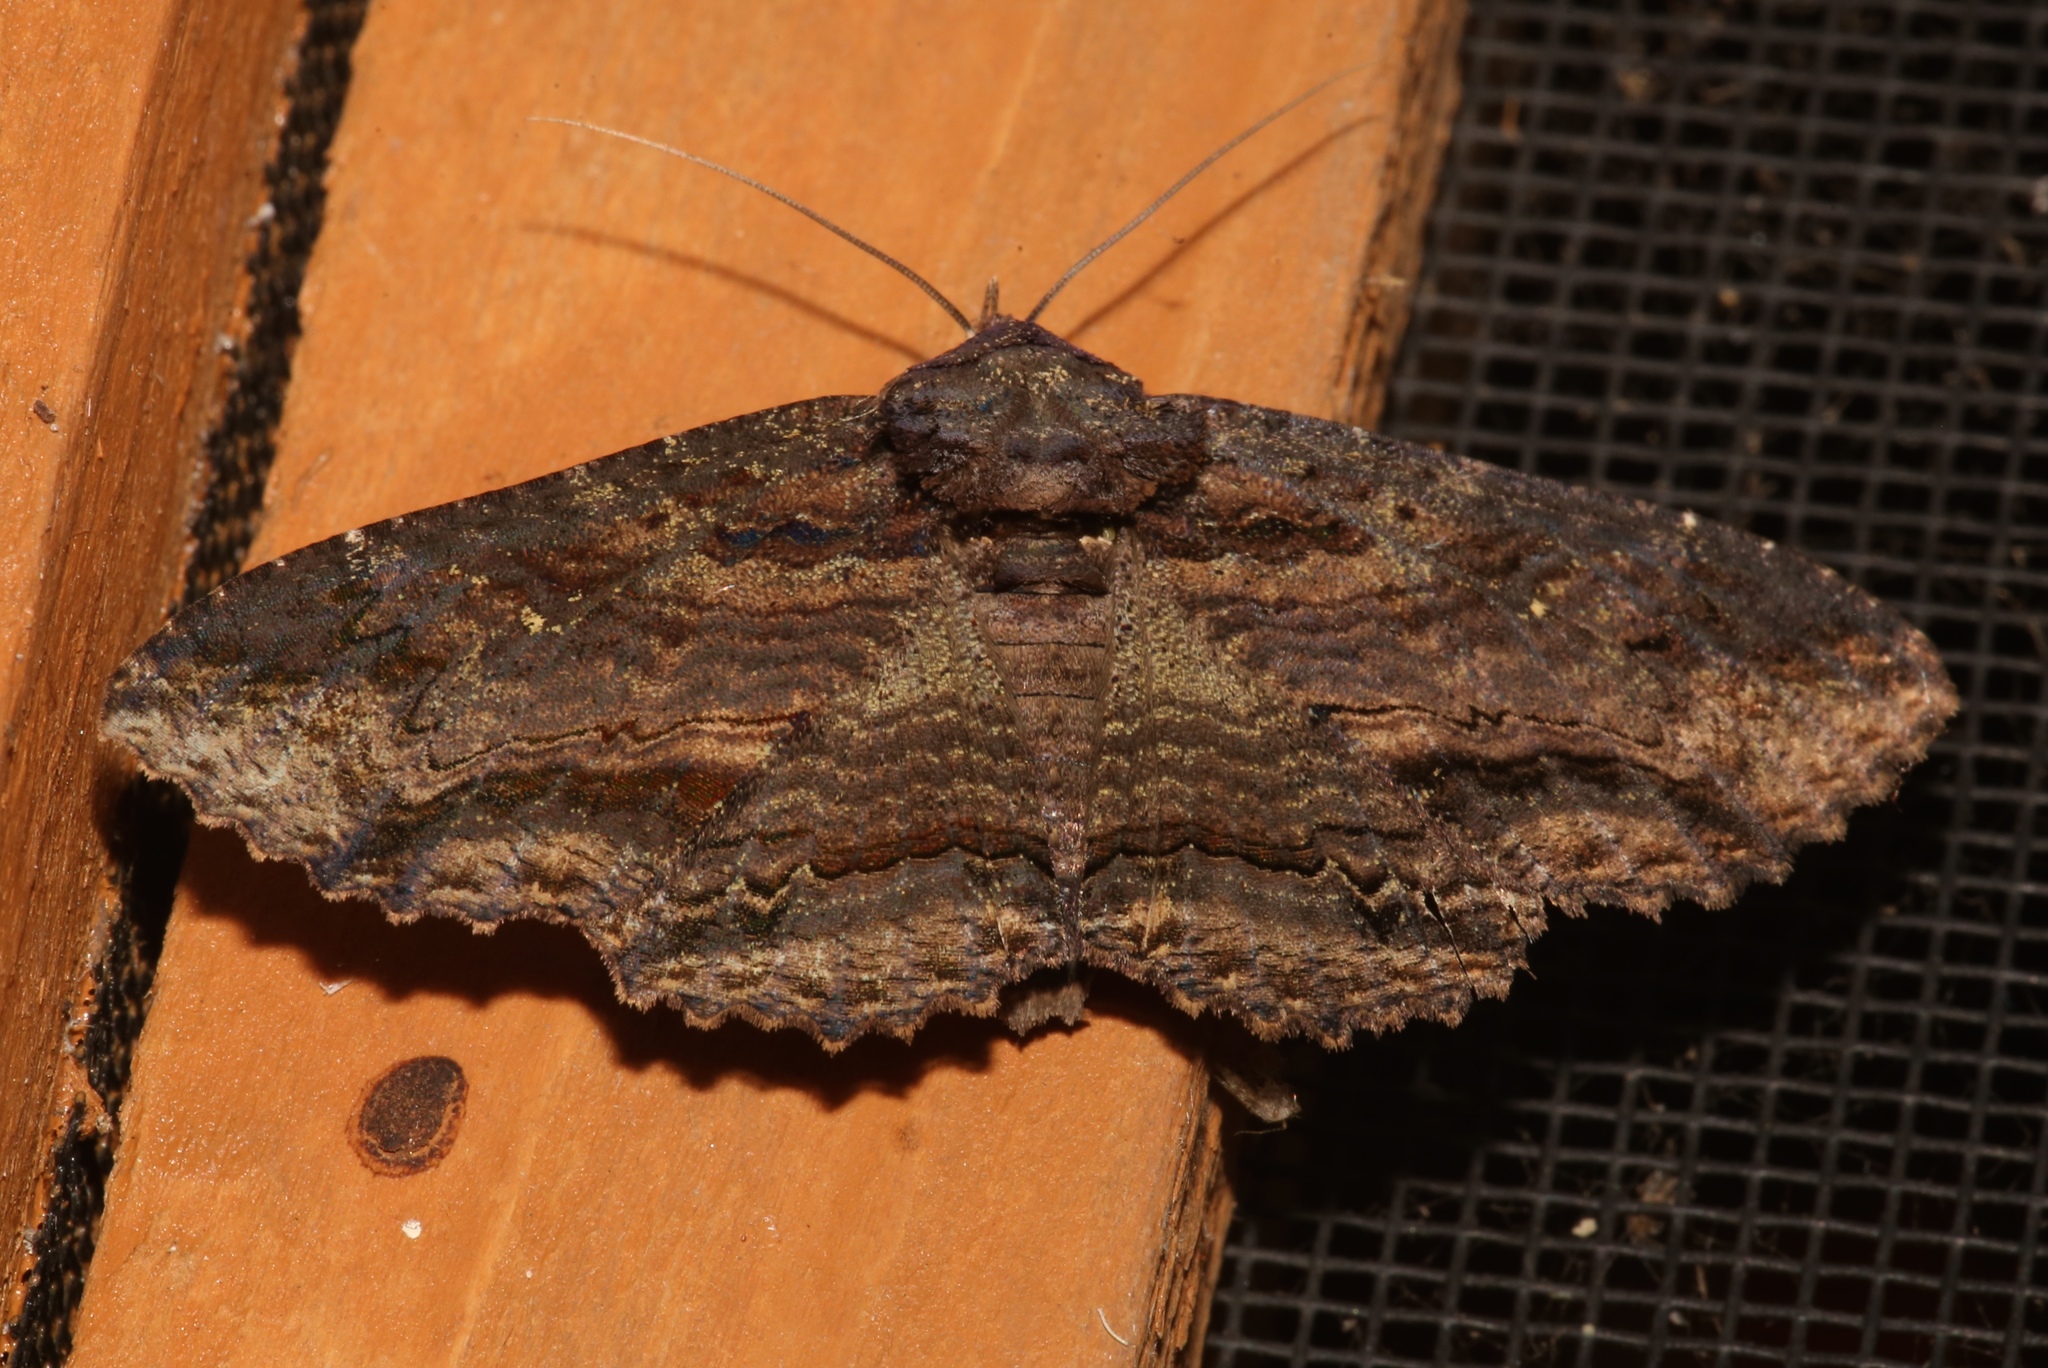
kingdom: Animalia
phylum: Arthropoda
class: Insecta
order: Lepidoptera
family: Erebidae
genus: Zale
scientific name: Zale lunata
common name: Lunate zale moth
